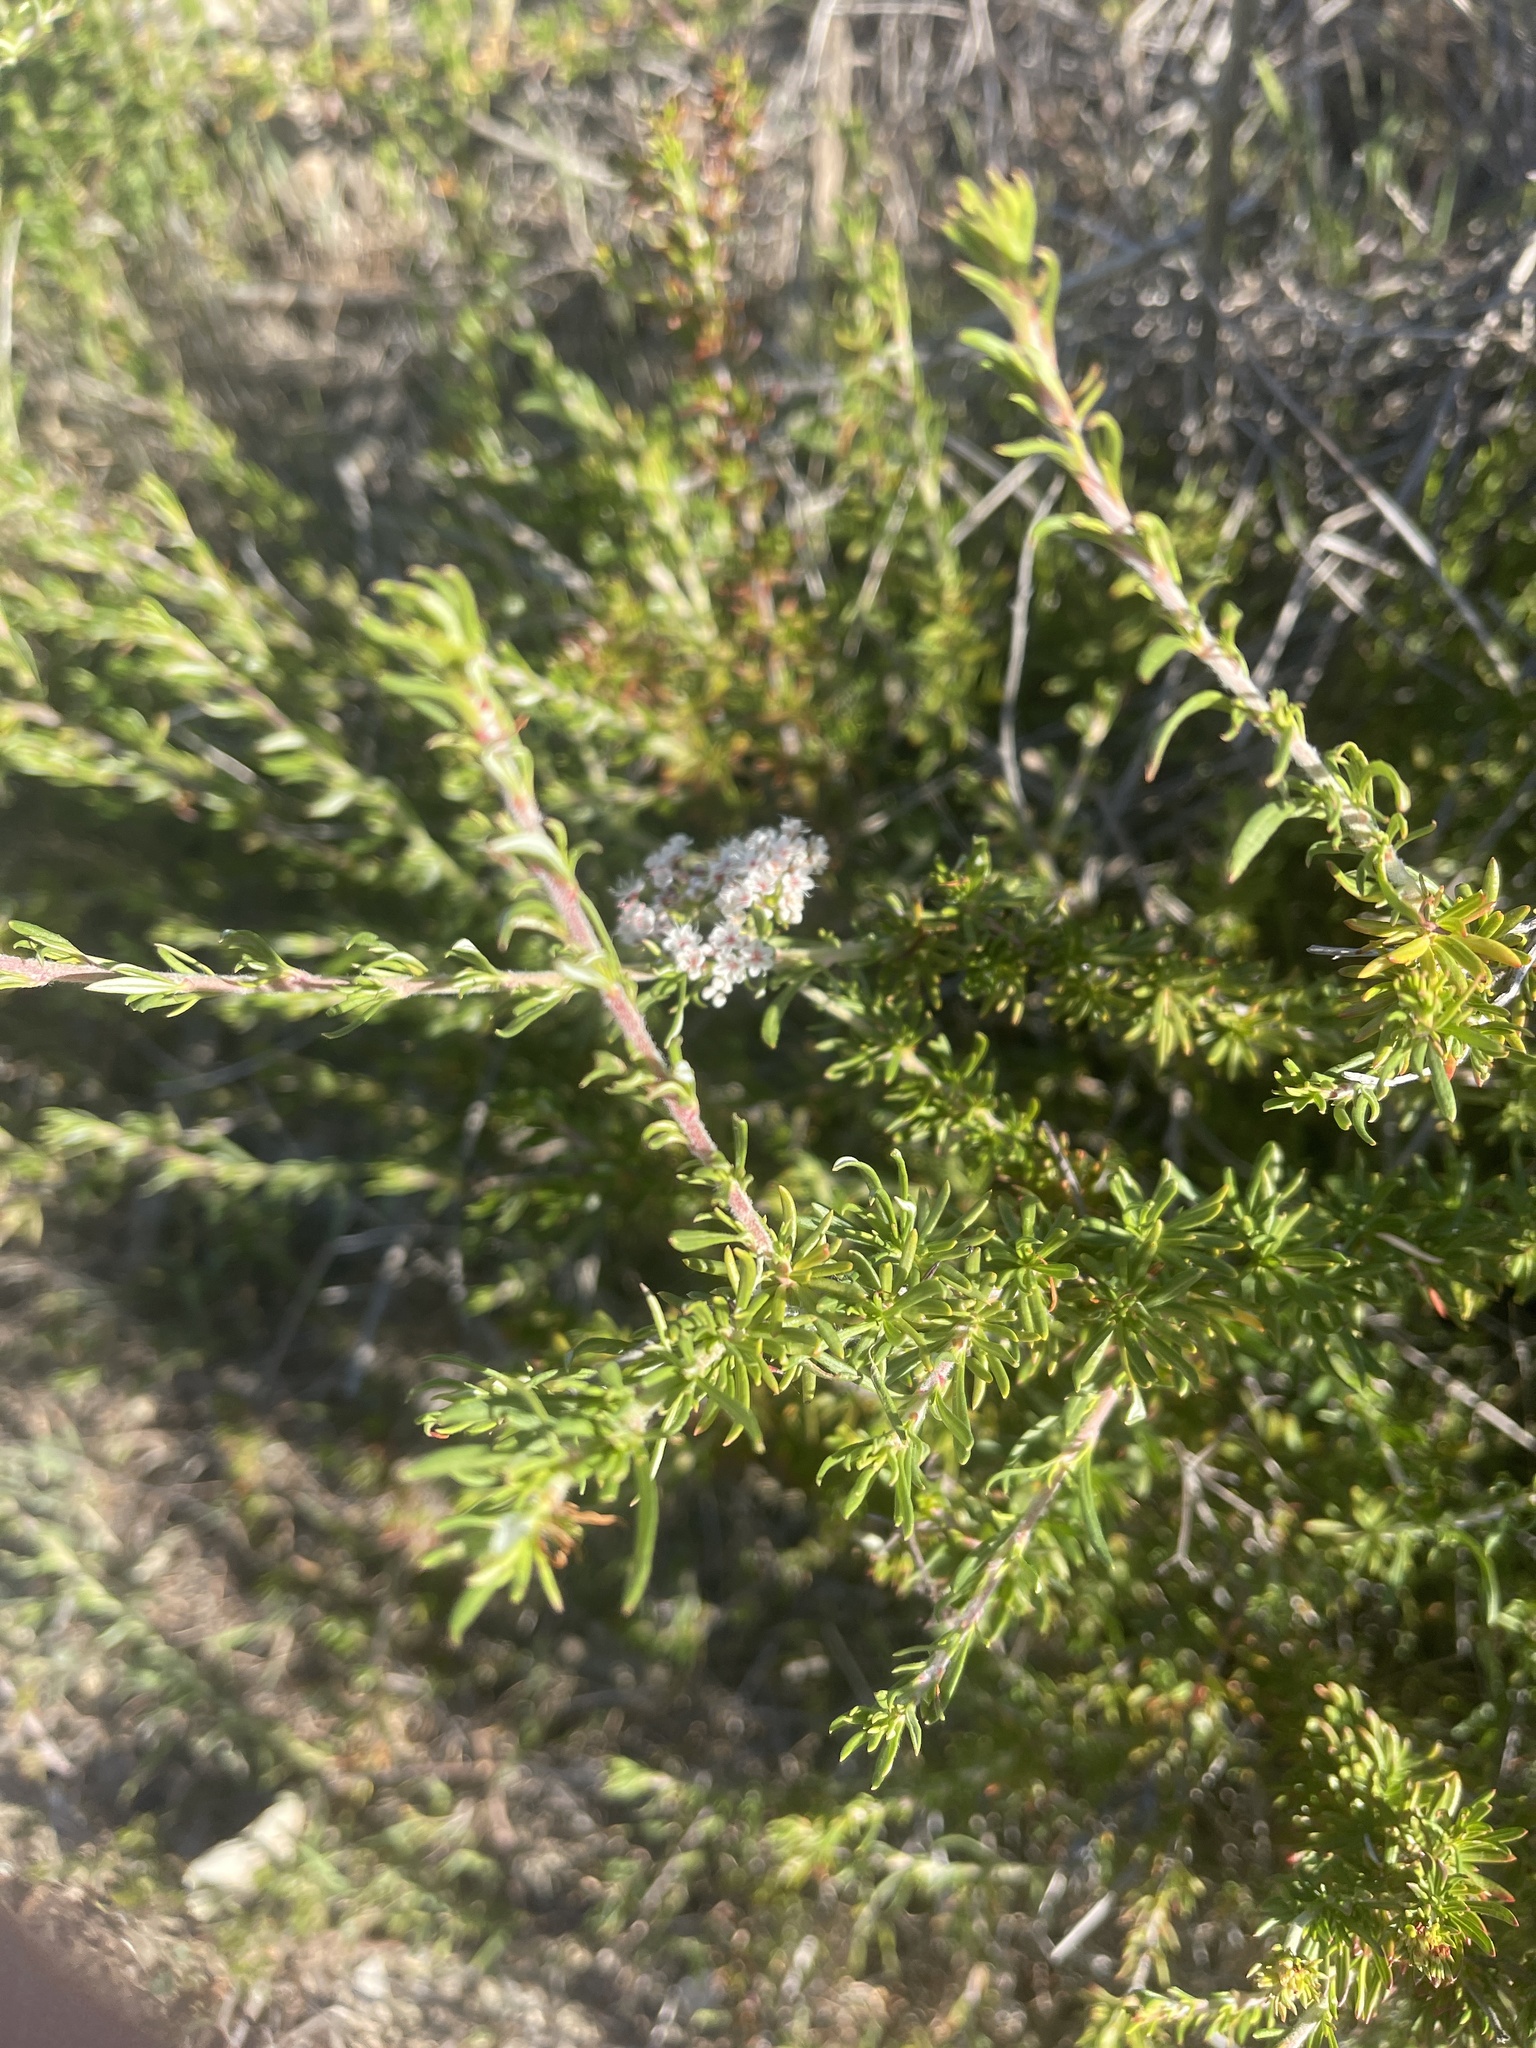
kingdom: Plantae
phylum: Tracheophyta
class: Magnoliopsida
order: Caryophyllales
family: Polygonaceae
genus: Eriogonum
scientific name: Eriogonum fasciculatum
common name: California wild buckwheat
